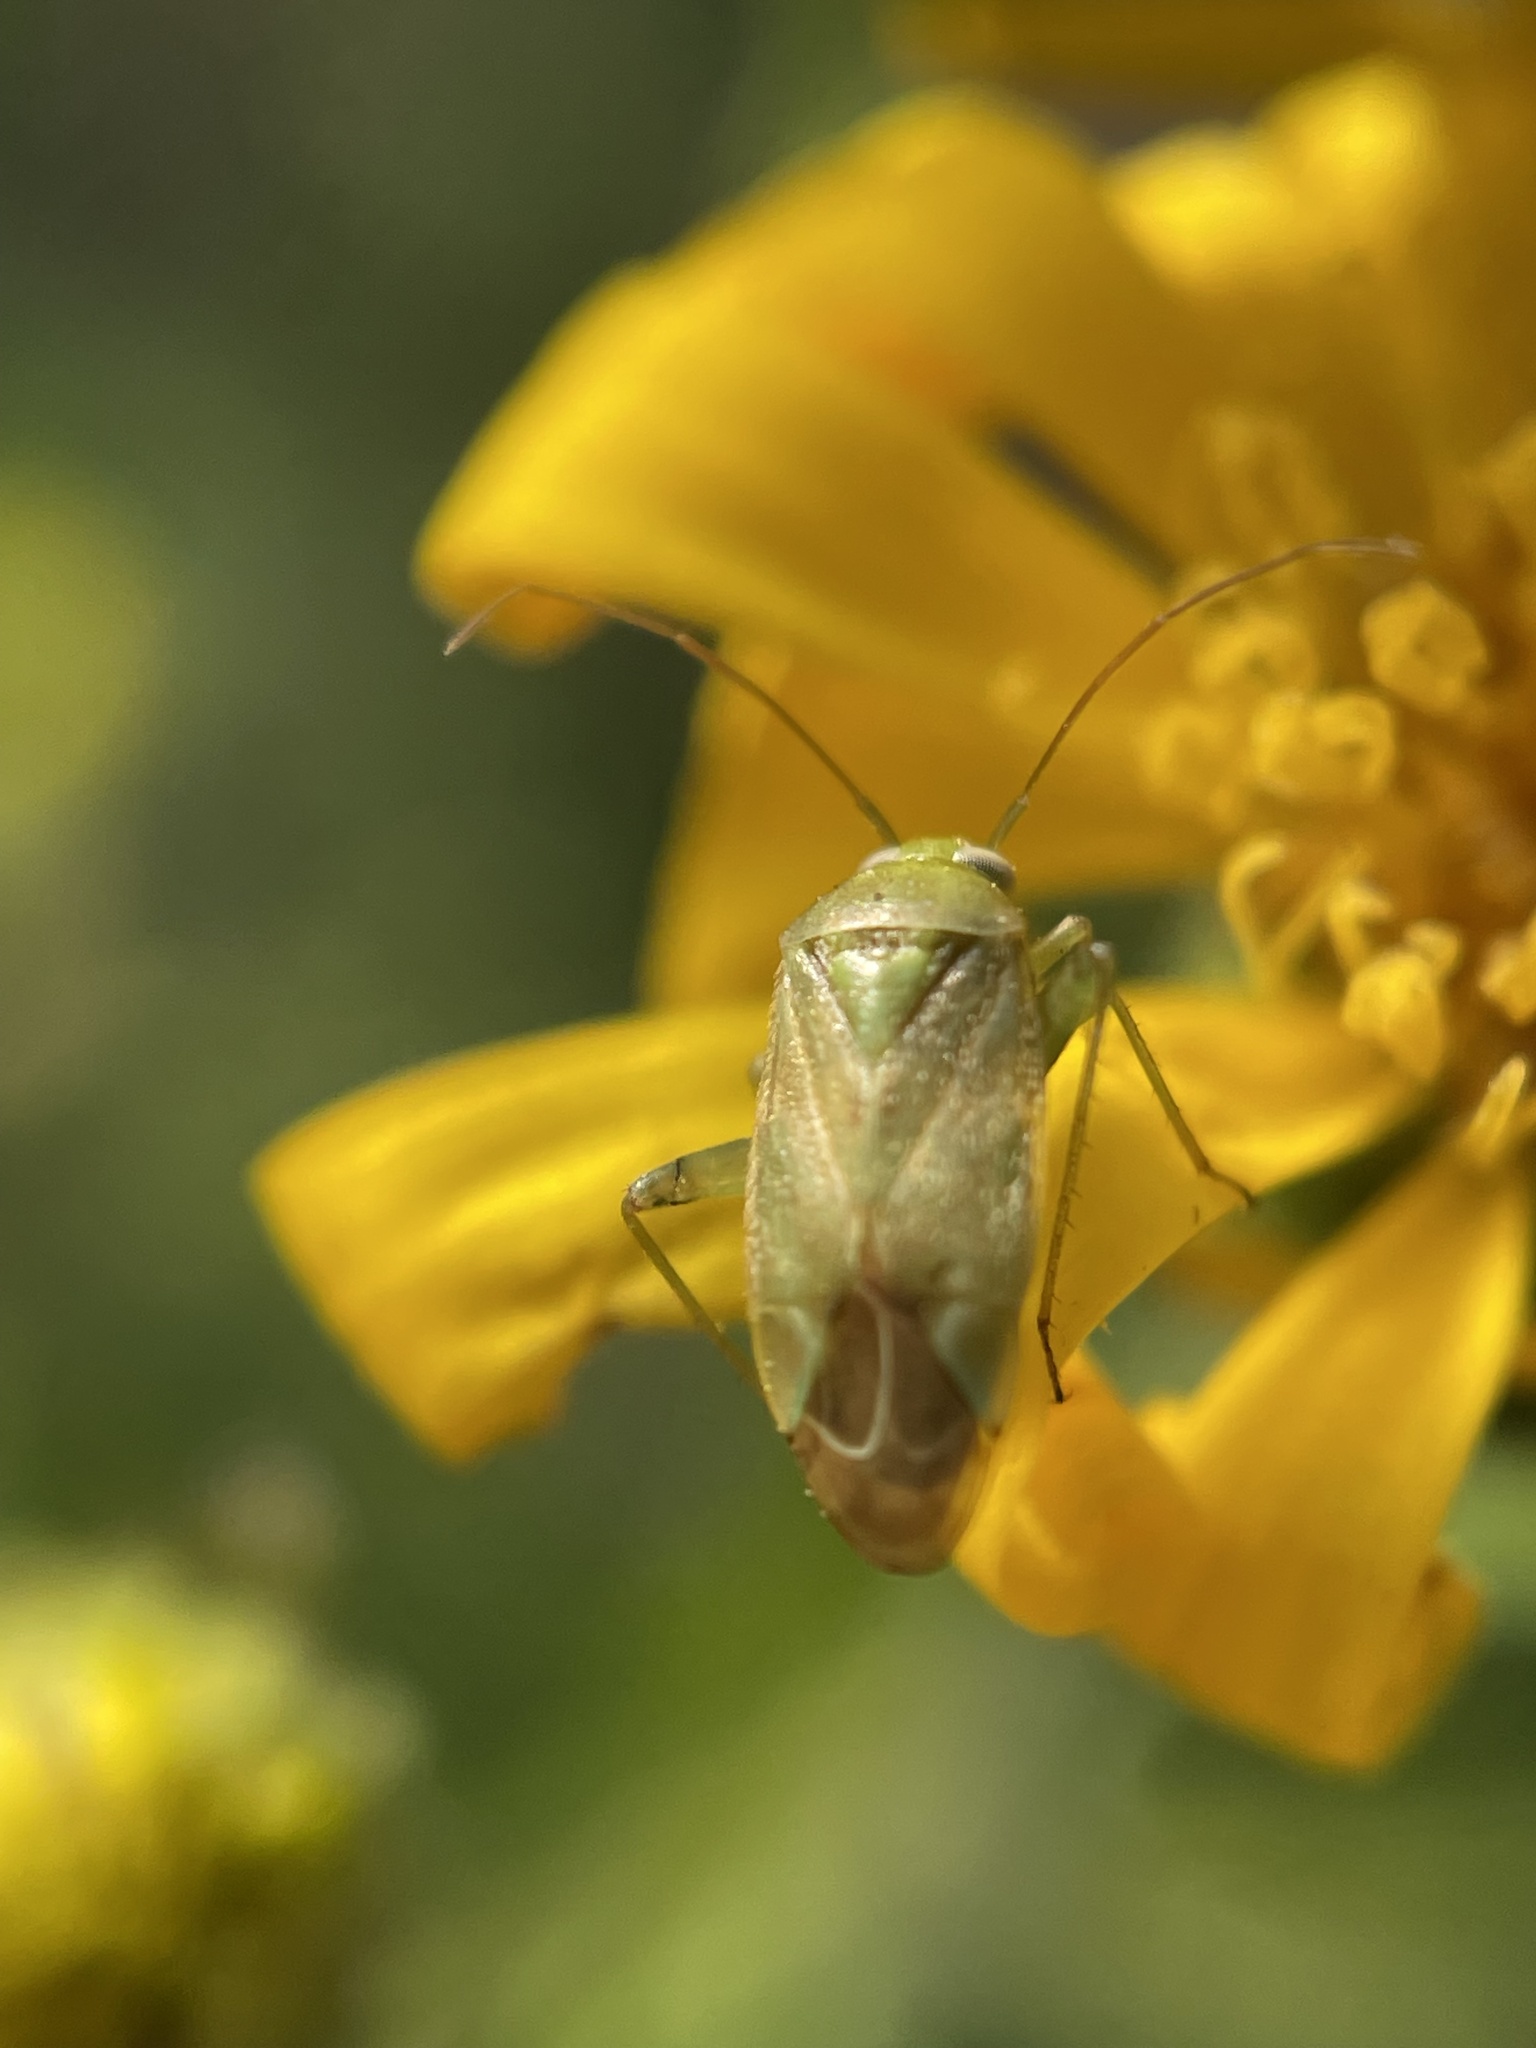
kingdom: Animalia
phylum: Arthropoda
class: Insecta
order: Hemiptera
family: Miridae
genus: Taylorilygus
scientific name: Taylorilygus apicalis
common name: Plant bug
